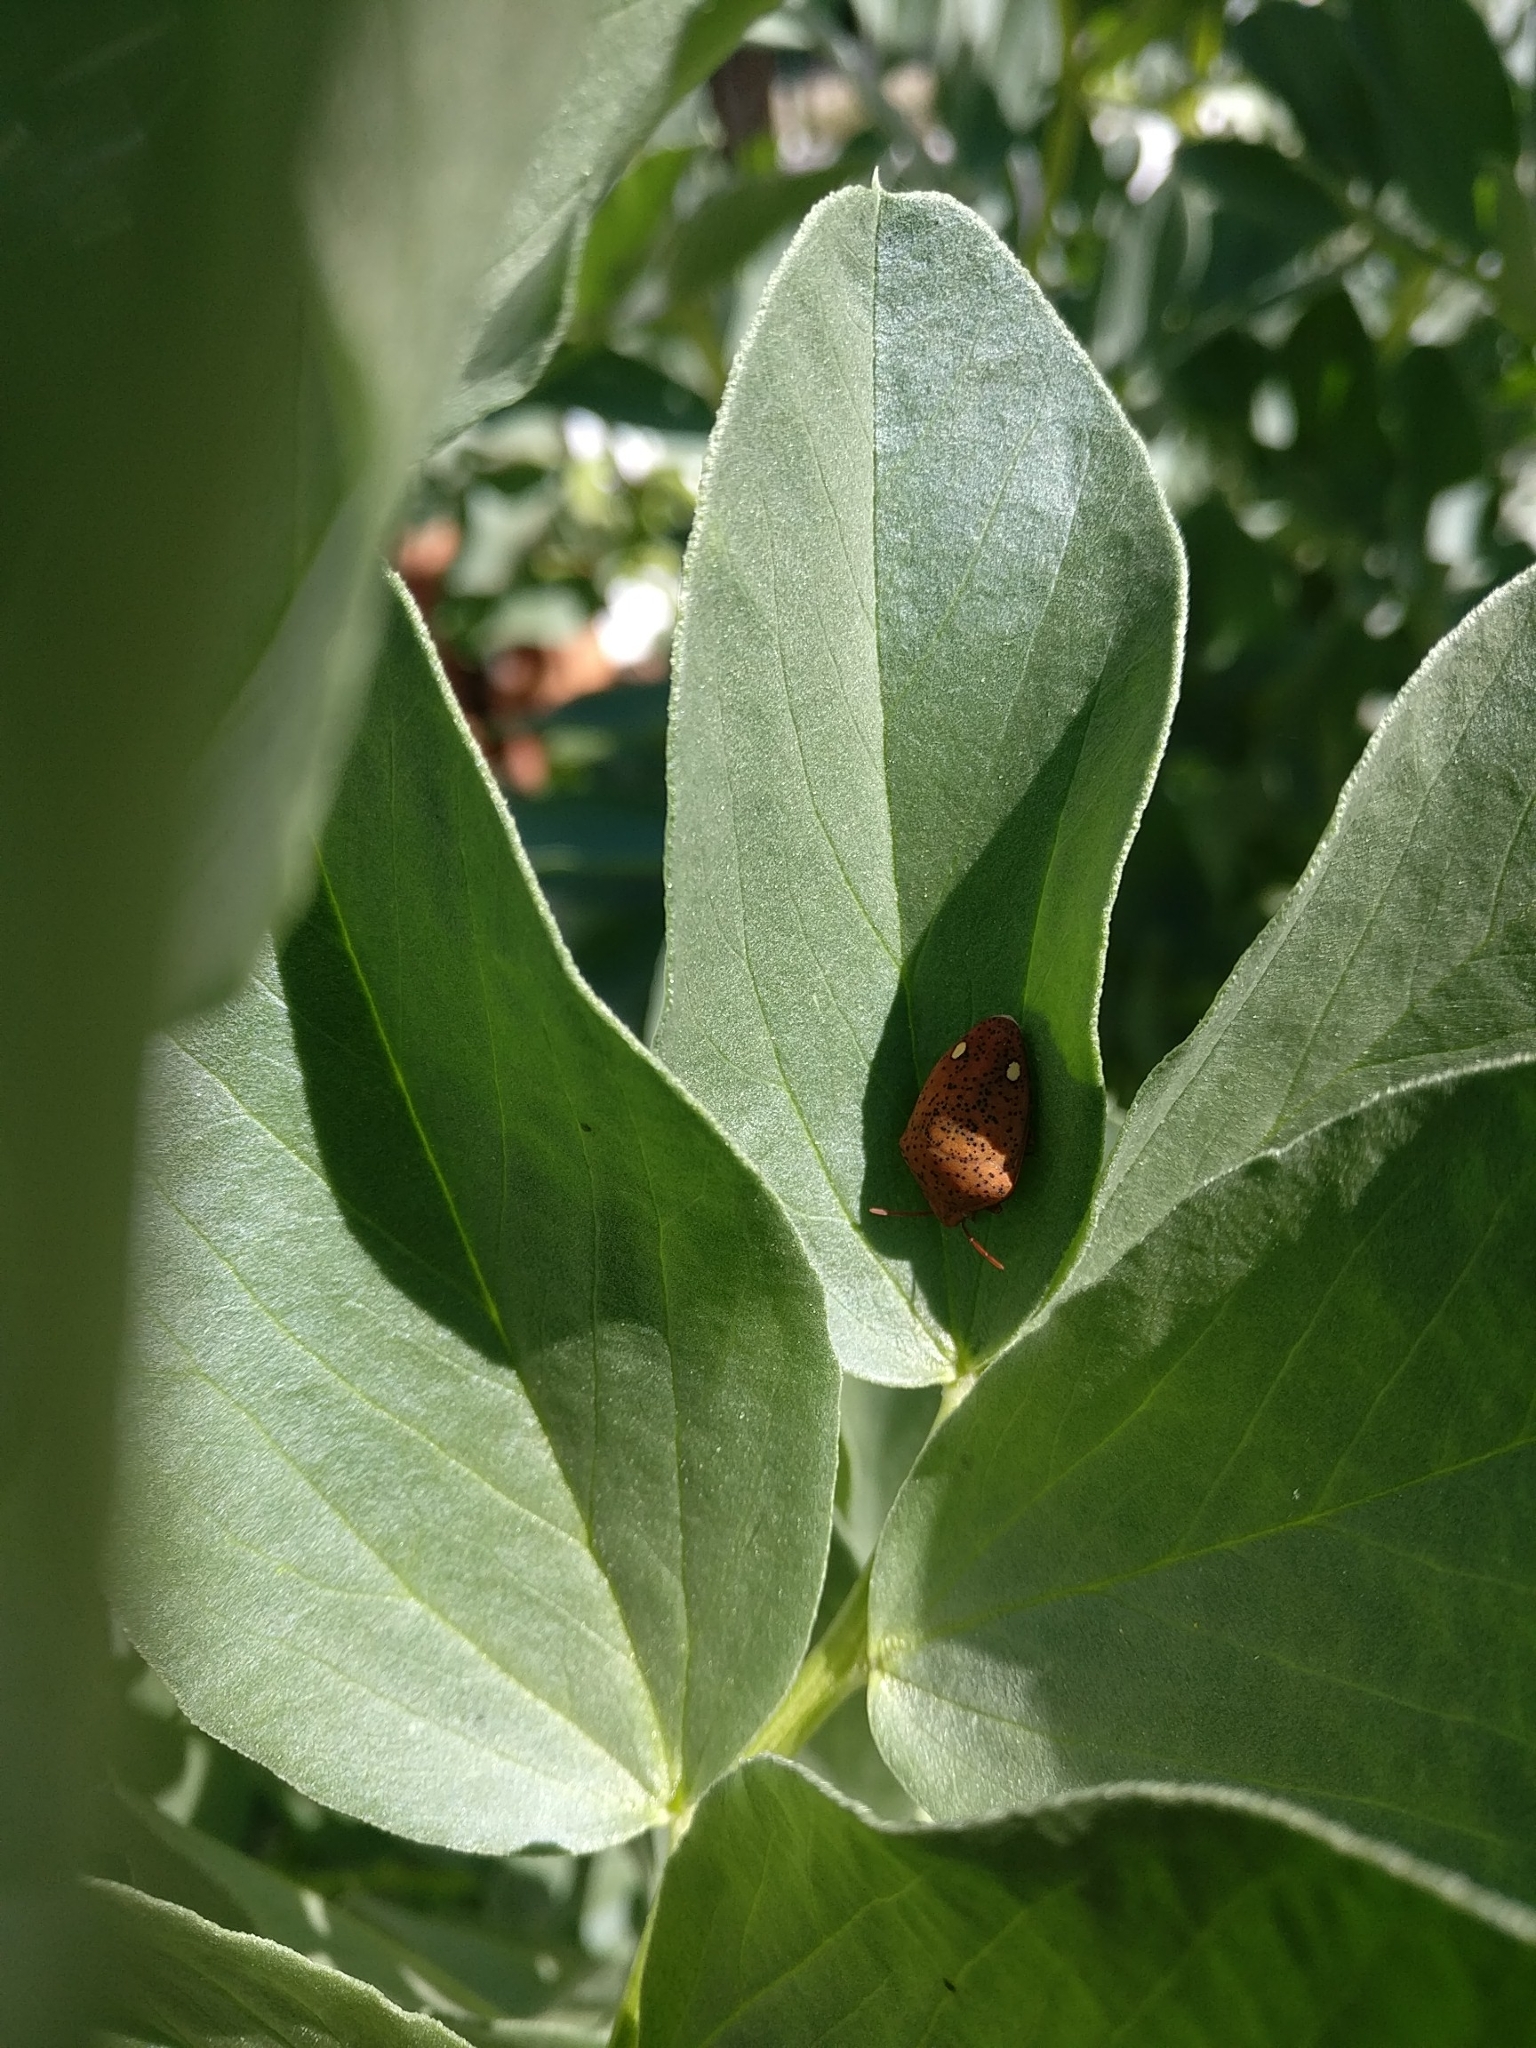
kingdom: Animalia
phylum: Arthropoda
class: Insecta
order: Hemiptera
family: Scutelleridae
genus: Solenosthedium
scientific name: Solenosthedium bilunatum
